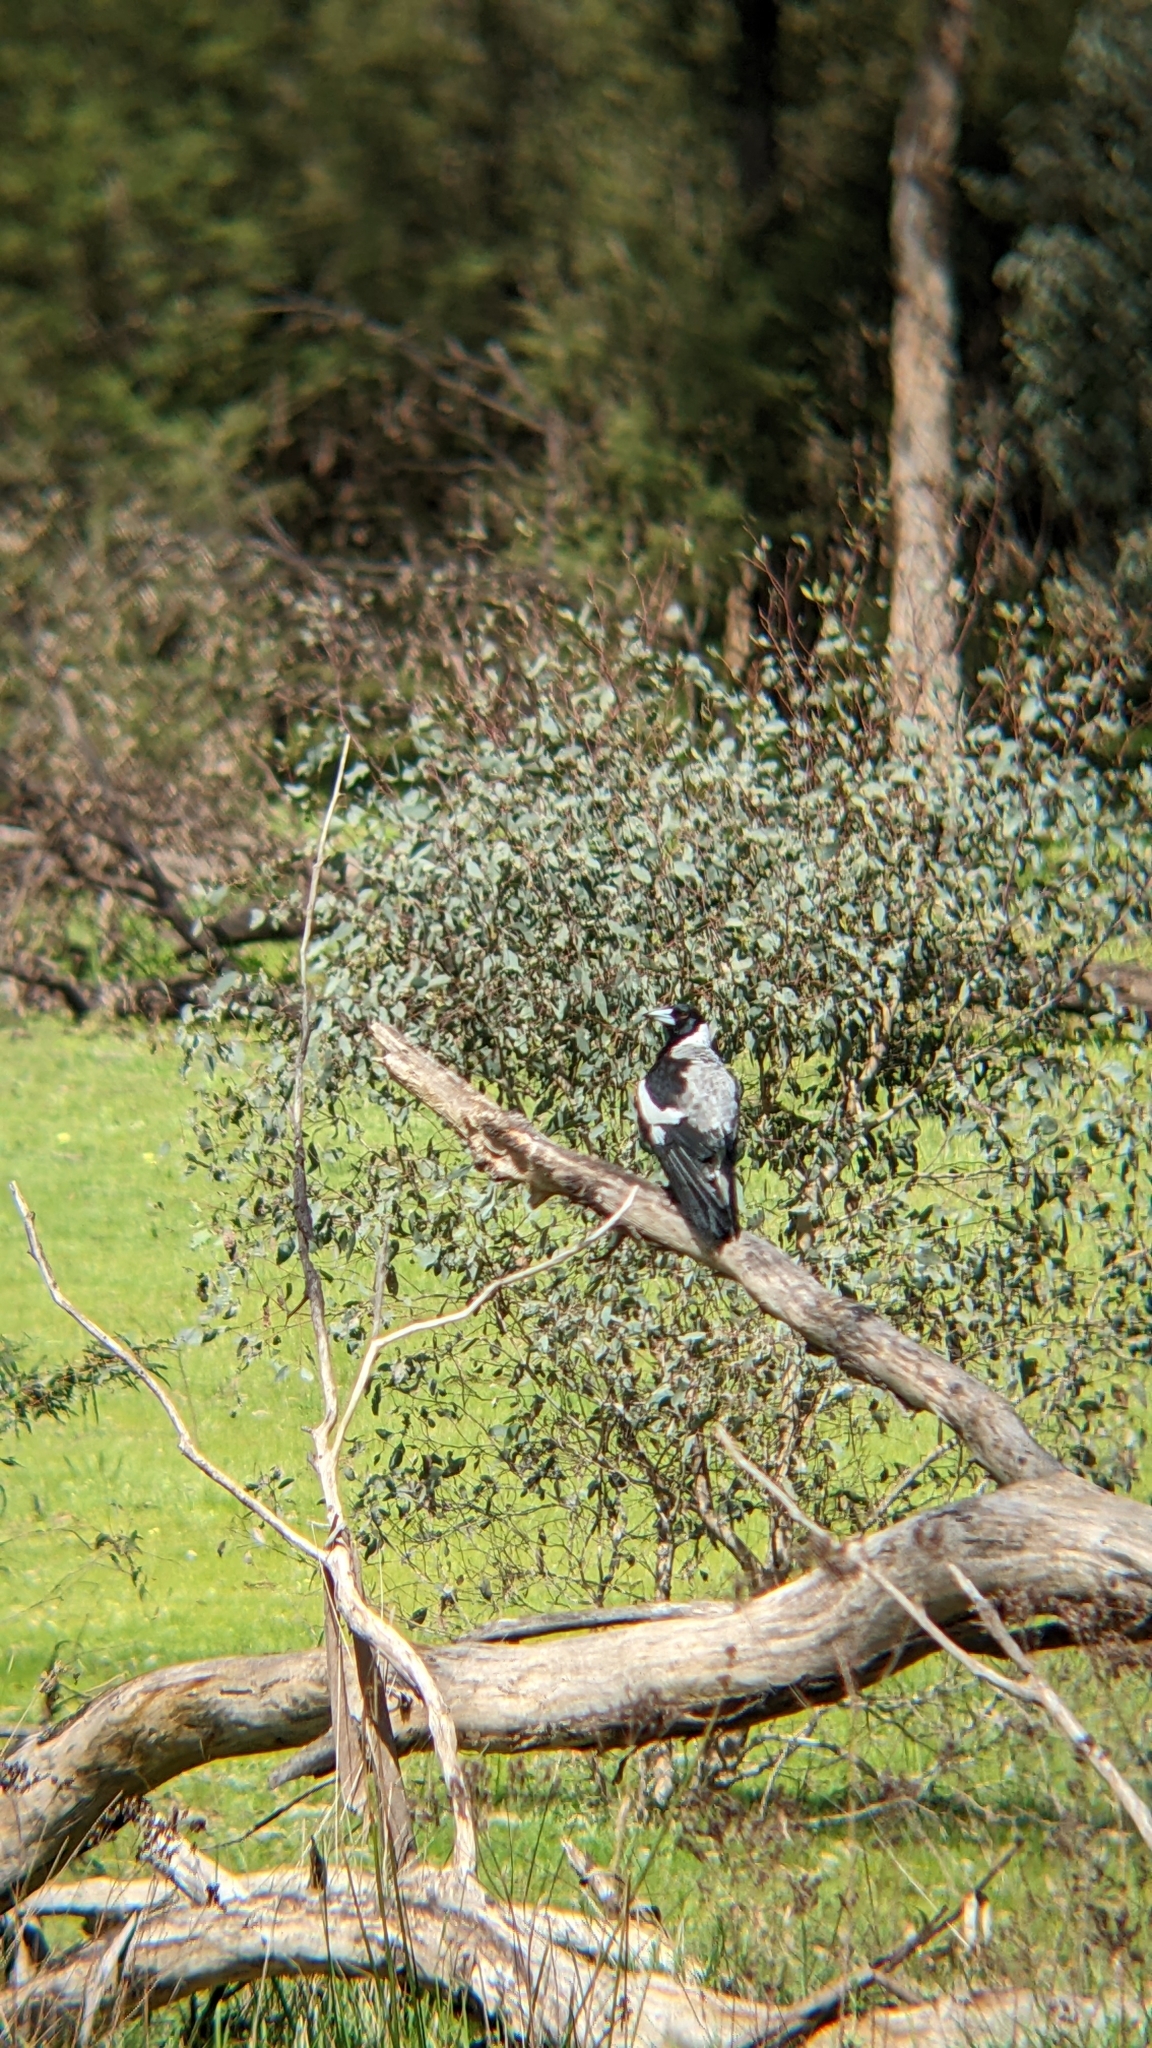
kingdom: Animalia
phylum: Chordata
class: Aves
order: Passeriformes
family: Cracticidae
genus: Gymnorhina
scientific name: Gymnorhina tibicen
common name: Australian magpie
